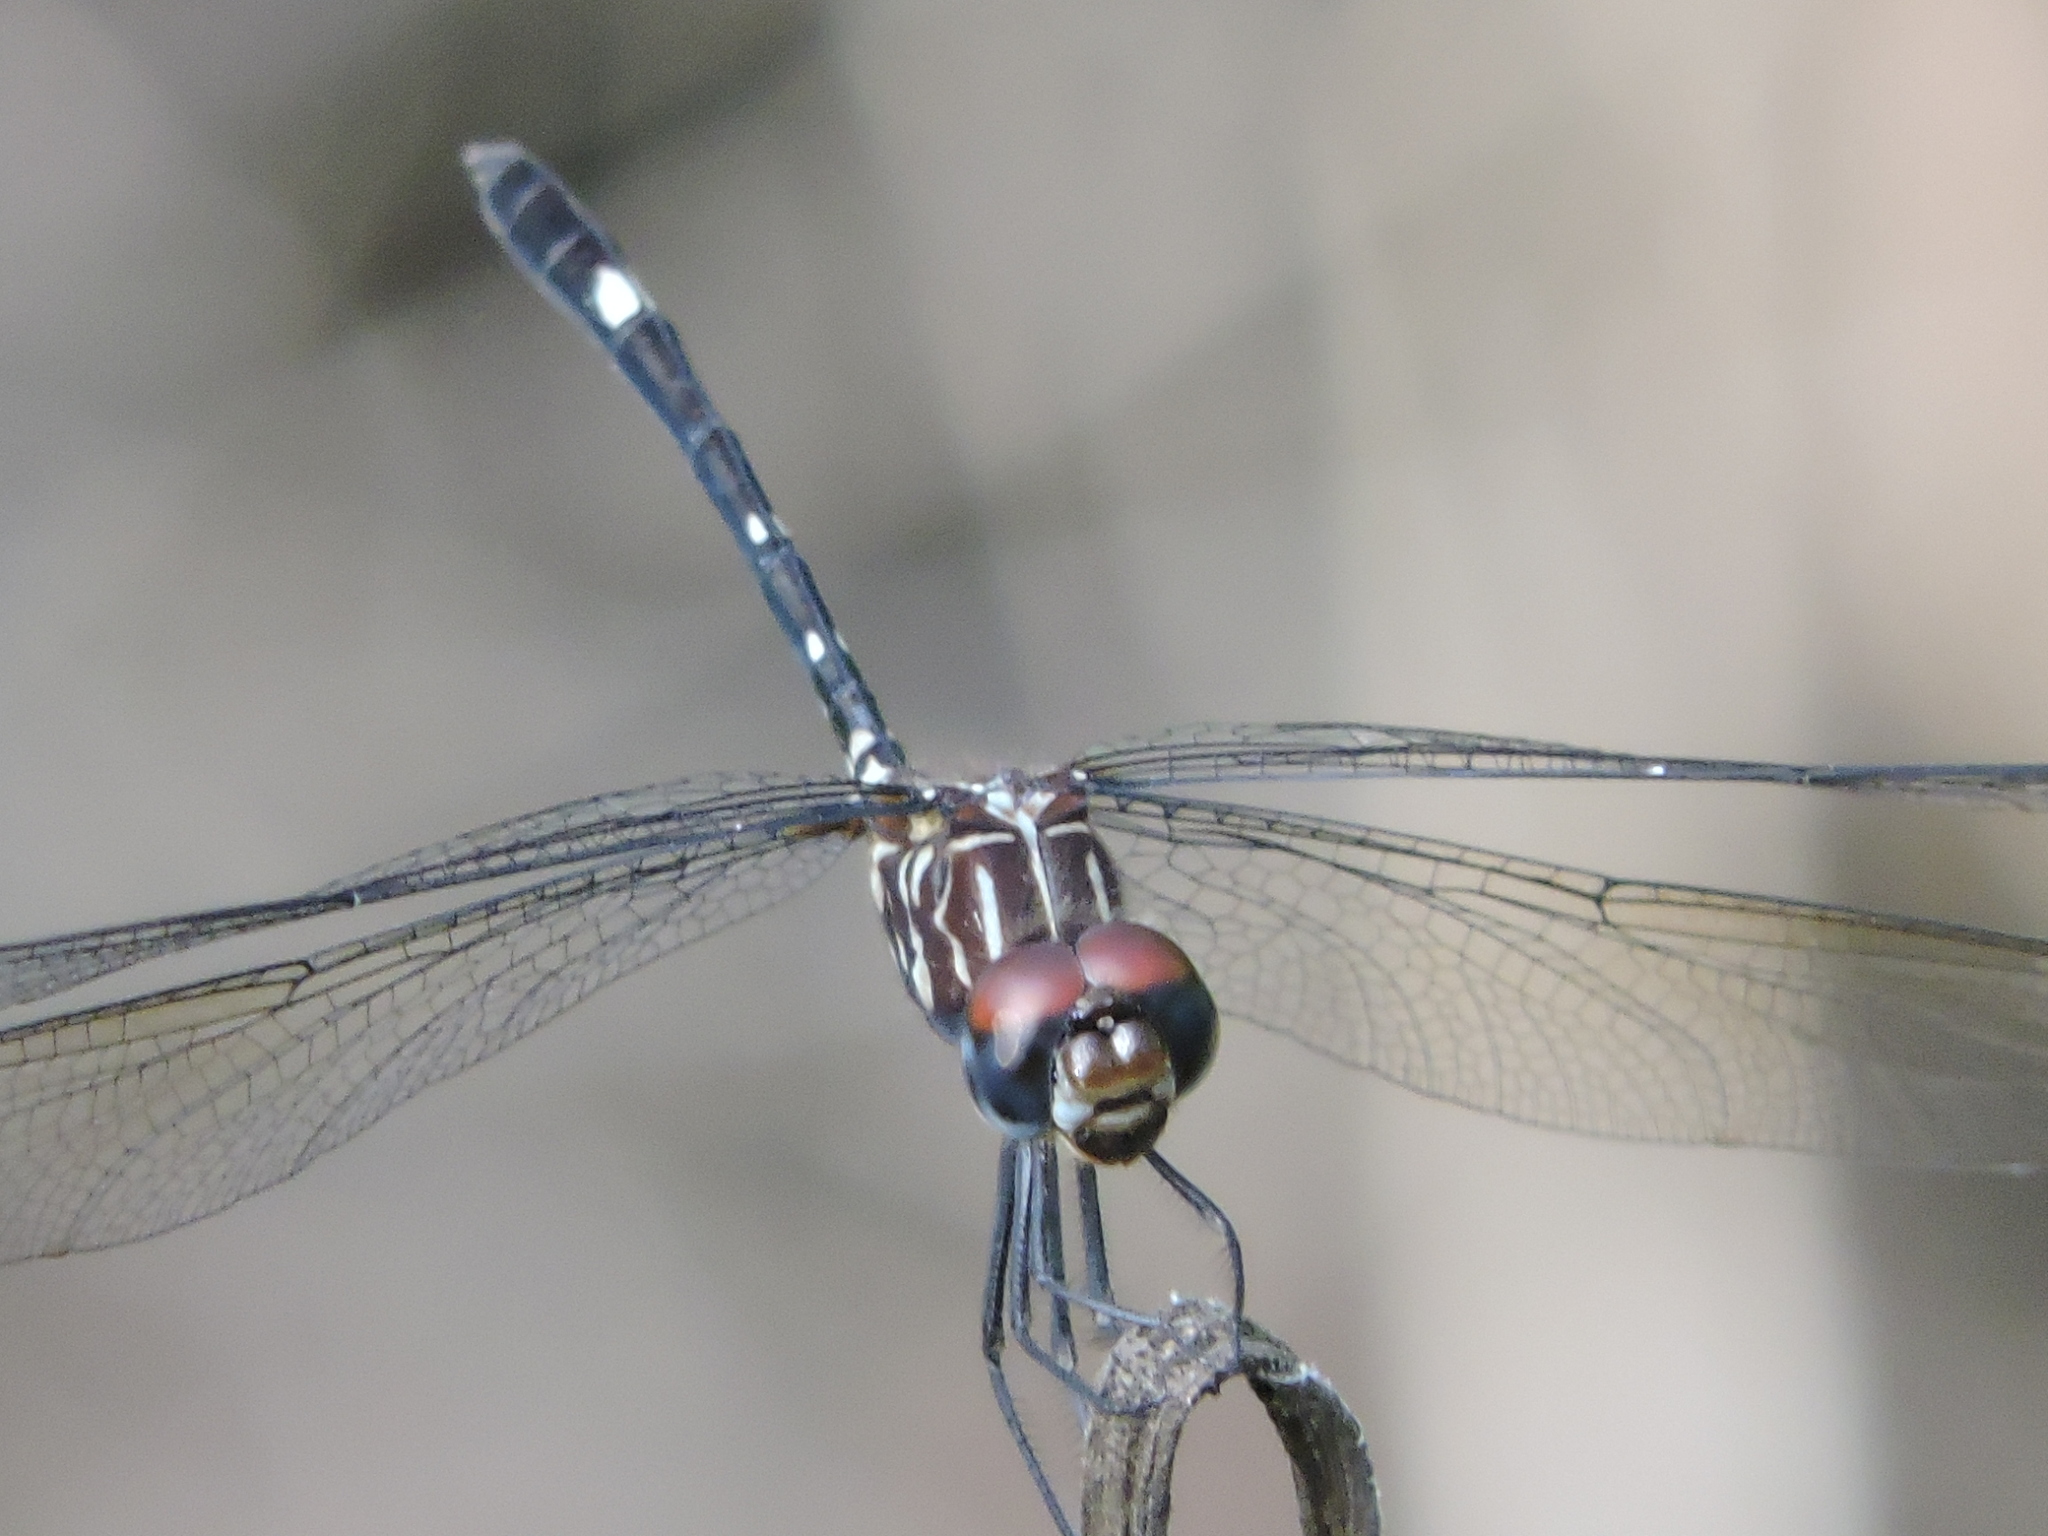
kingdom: Animalia
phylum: Arthropoda
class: Insecta
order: Odonata
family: Libellulidae
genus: Dythemis
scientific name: Dythemis velox
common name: Swift setwing
